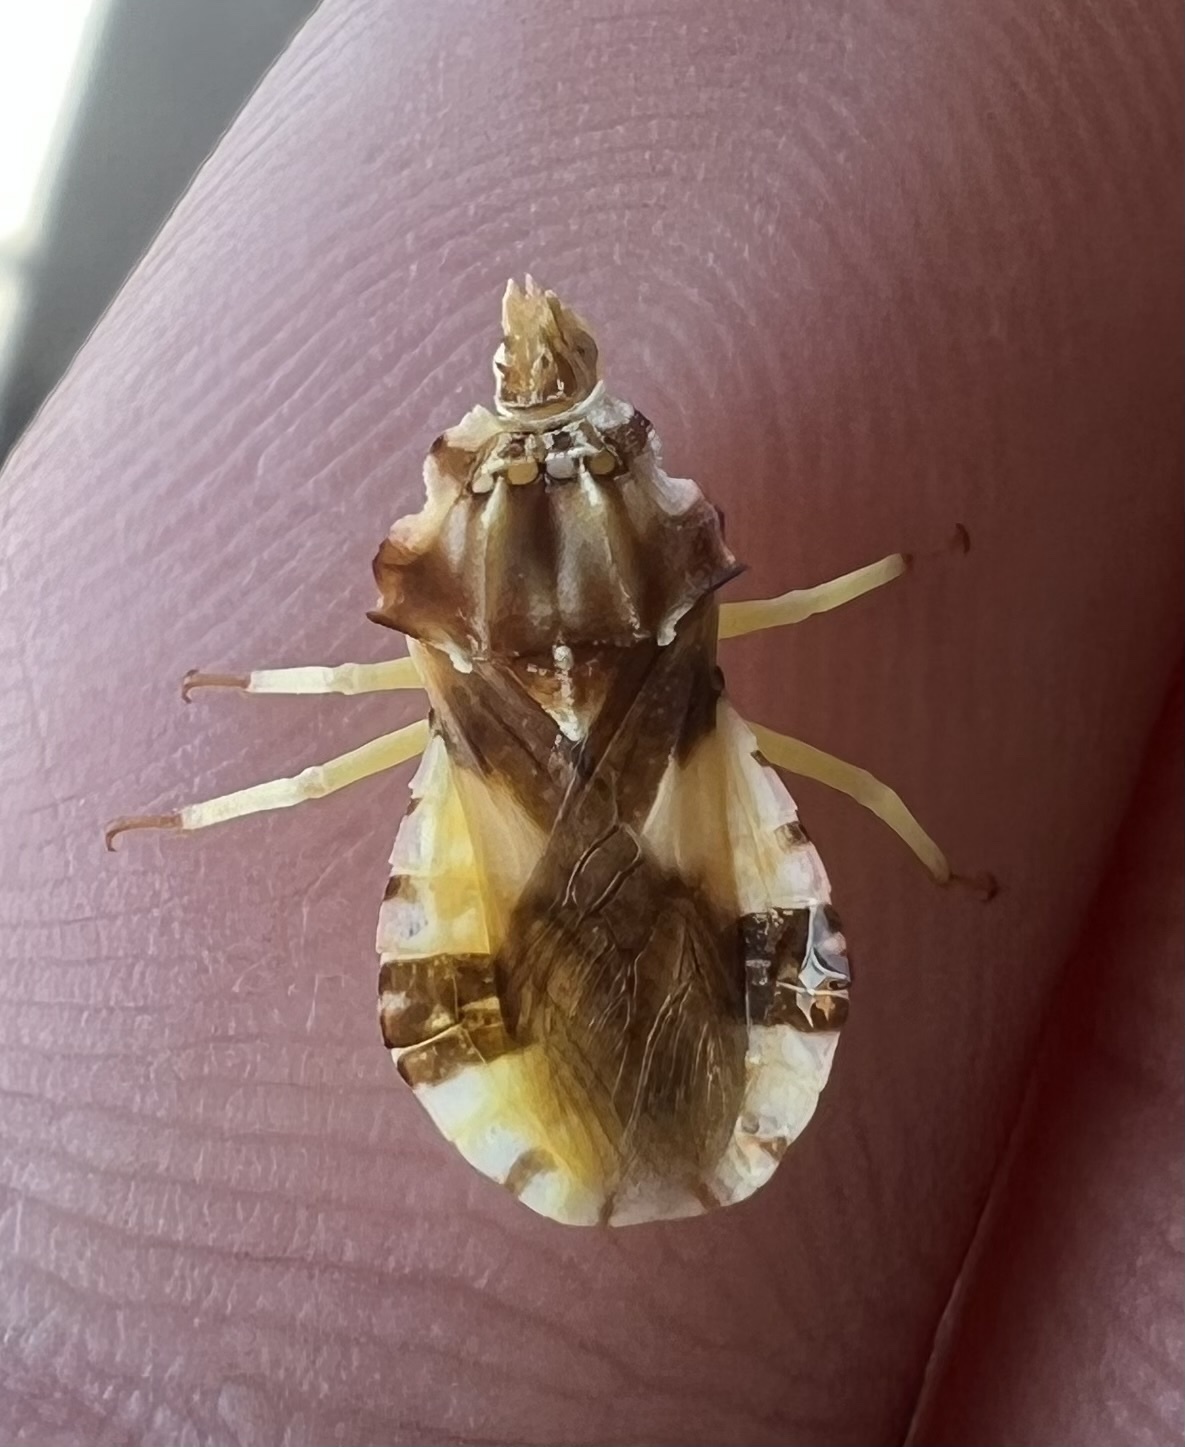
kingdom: Animalia
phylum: Arthropoda
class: Insecta
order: Hemiptera
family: Reduviidae
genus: Phymata
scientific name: Phymata americana
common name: Jagged ambush bug
